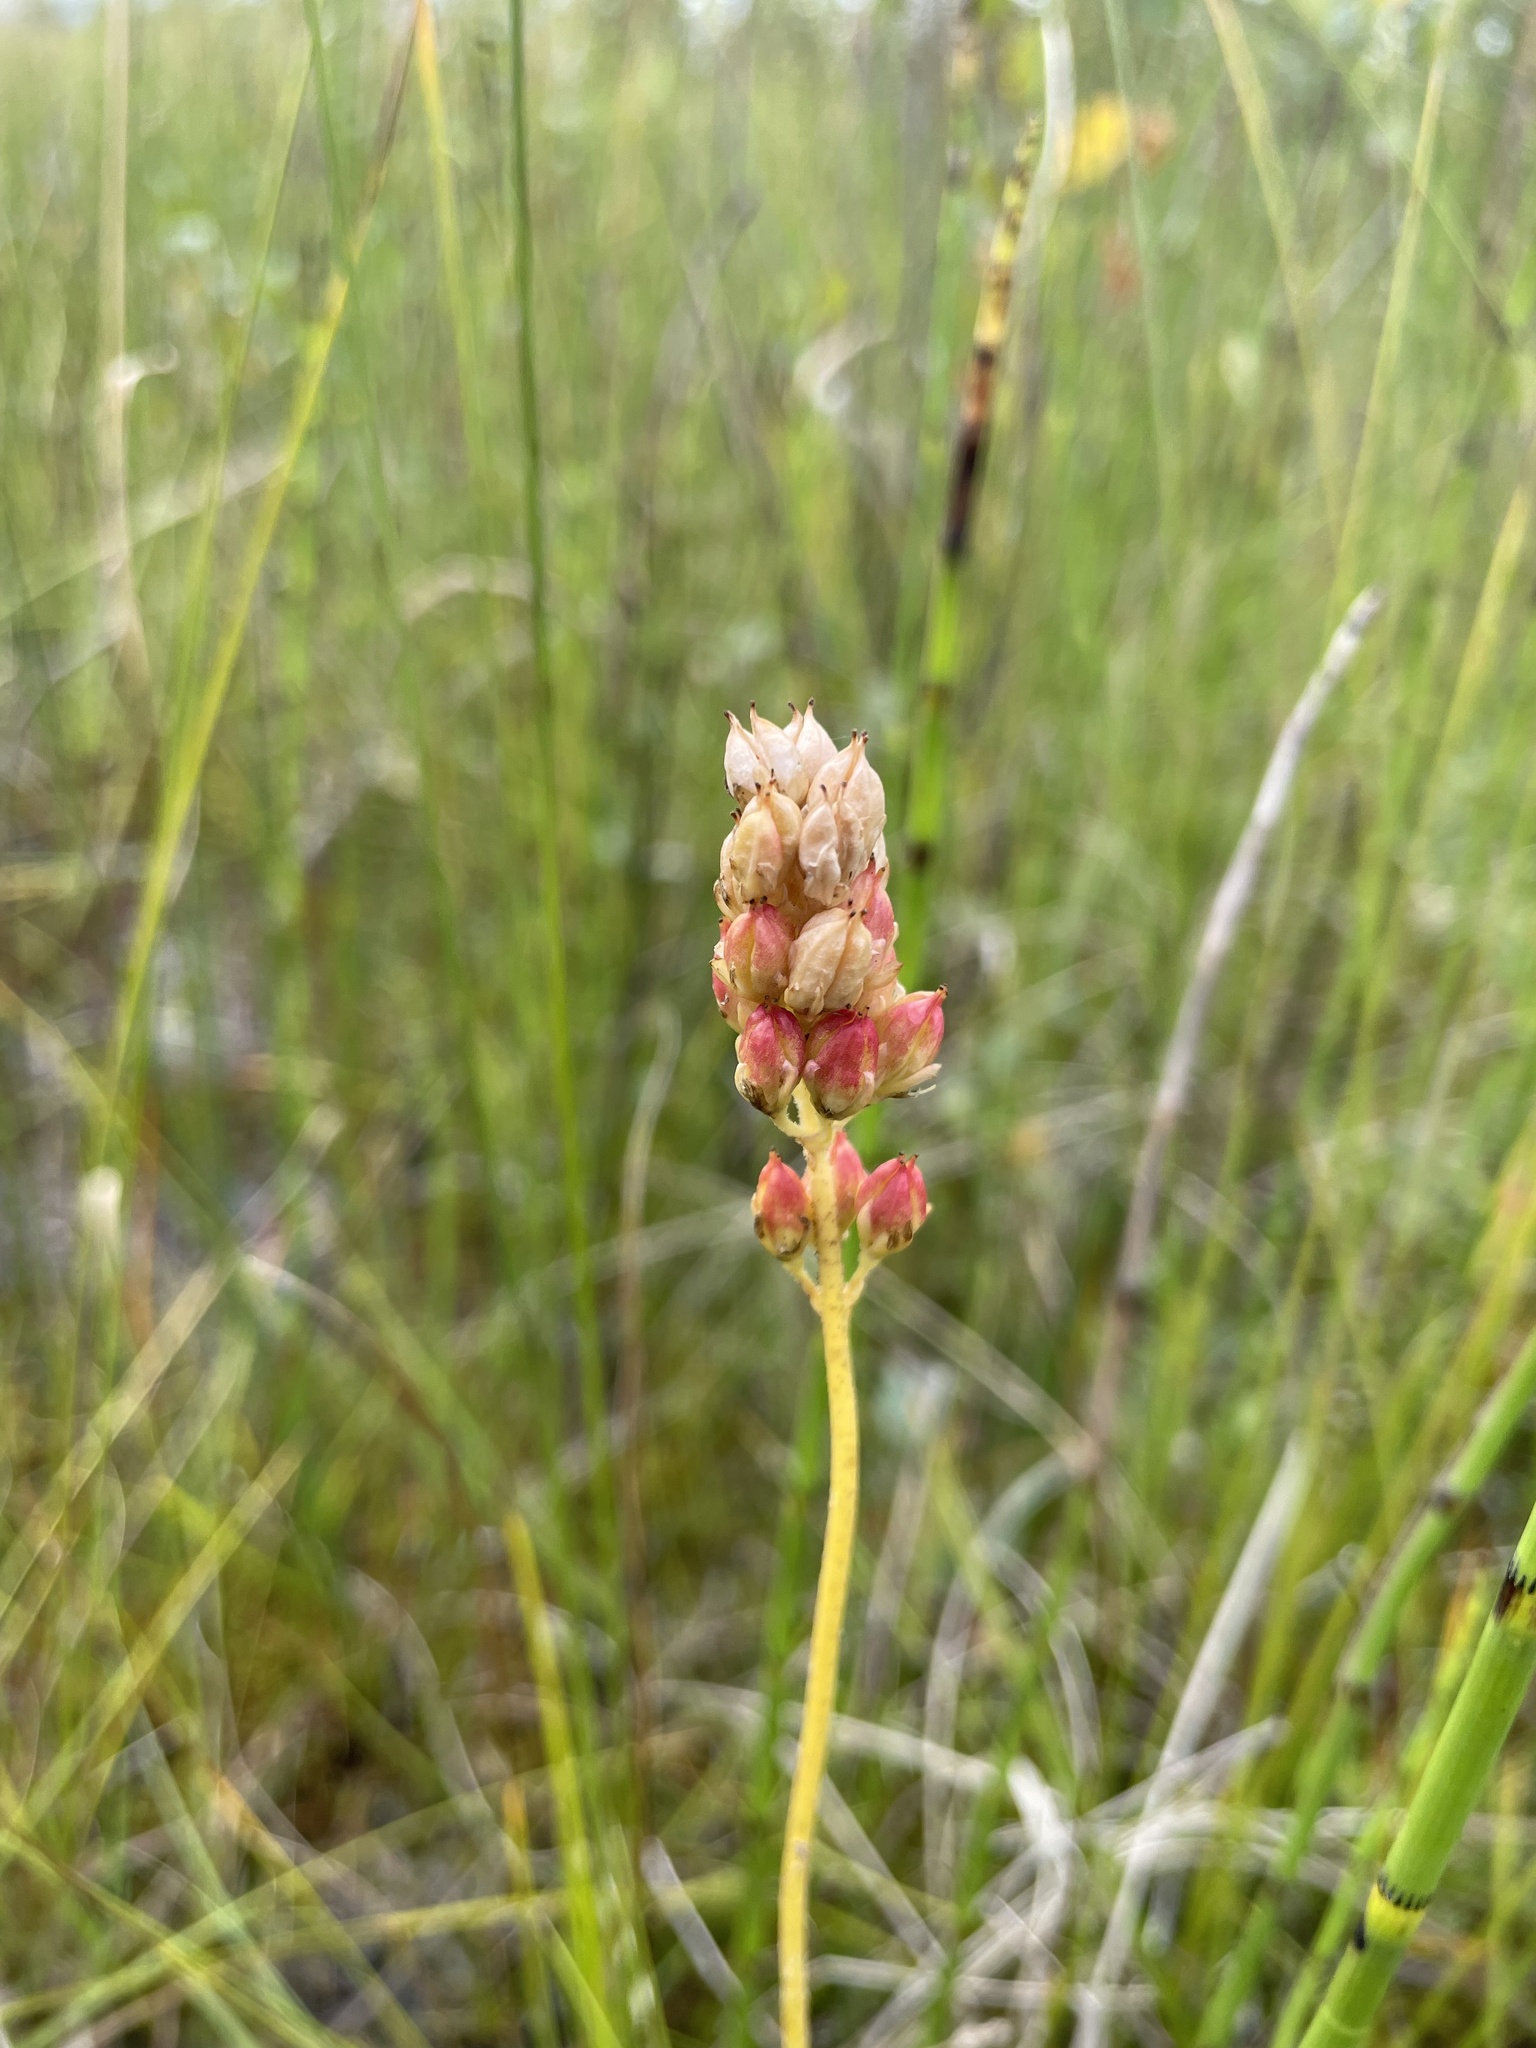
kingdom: Plantae
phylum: Tracheophyta
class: Liliopsida
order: Alismatales
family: Tofieldiaceae
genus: Triantha
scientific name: Triantha glutinosa
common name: Glutinous tofieldia
